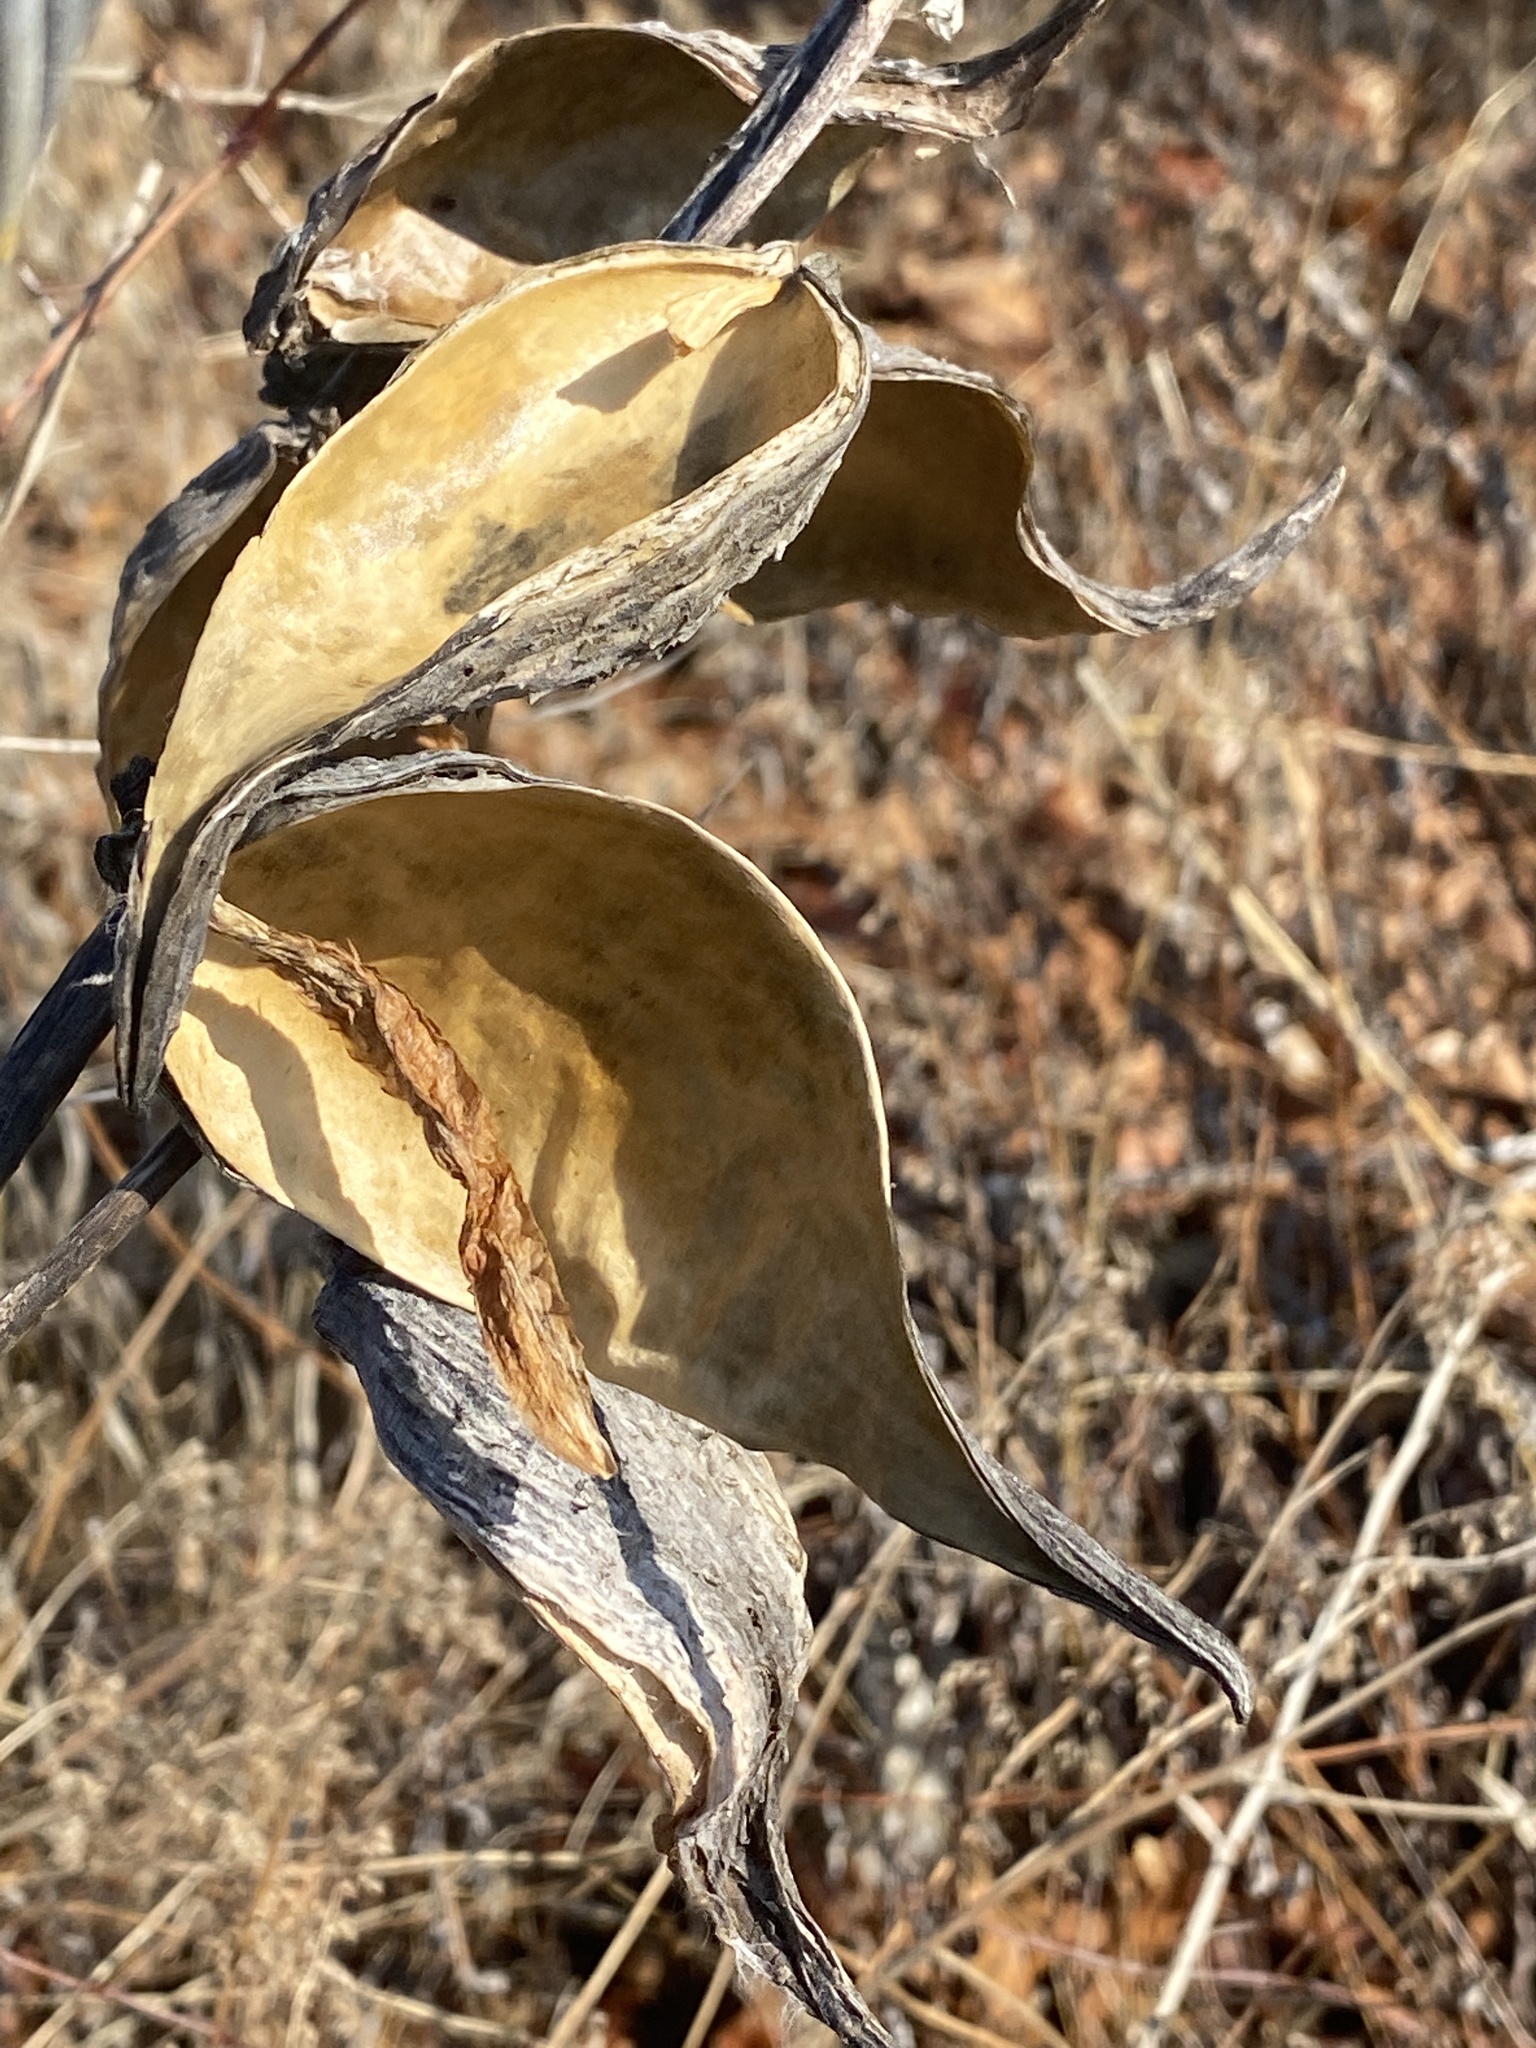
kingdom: Plantae
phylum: Tracheophyta
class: Magnoliopsida
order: Gentianales
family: Apocynaceae
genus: Asclepias
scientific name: Asclepias syriaca
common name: Common milkweed
